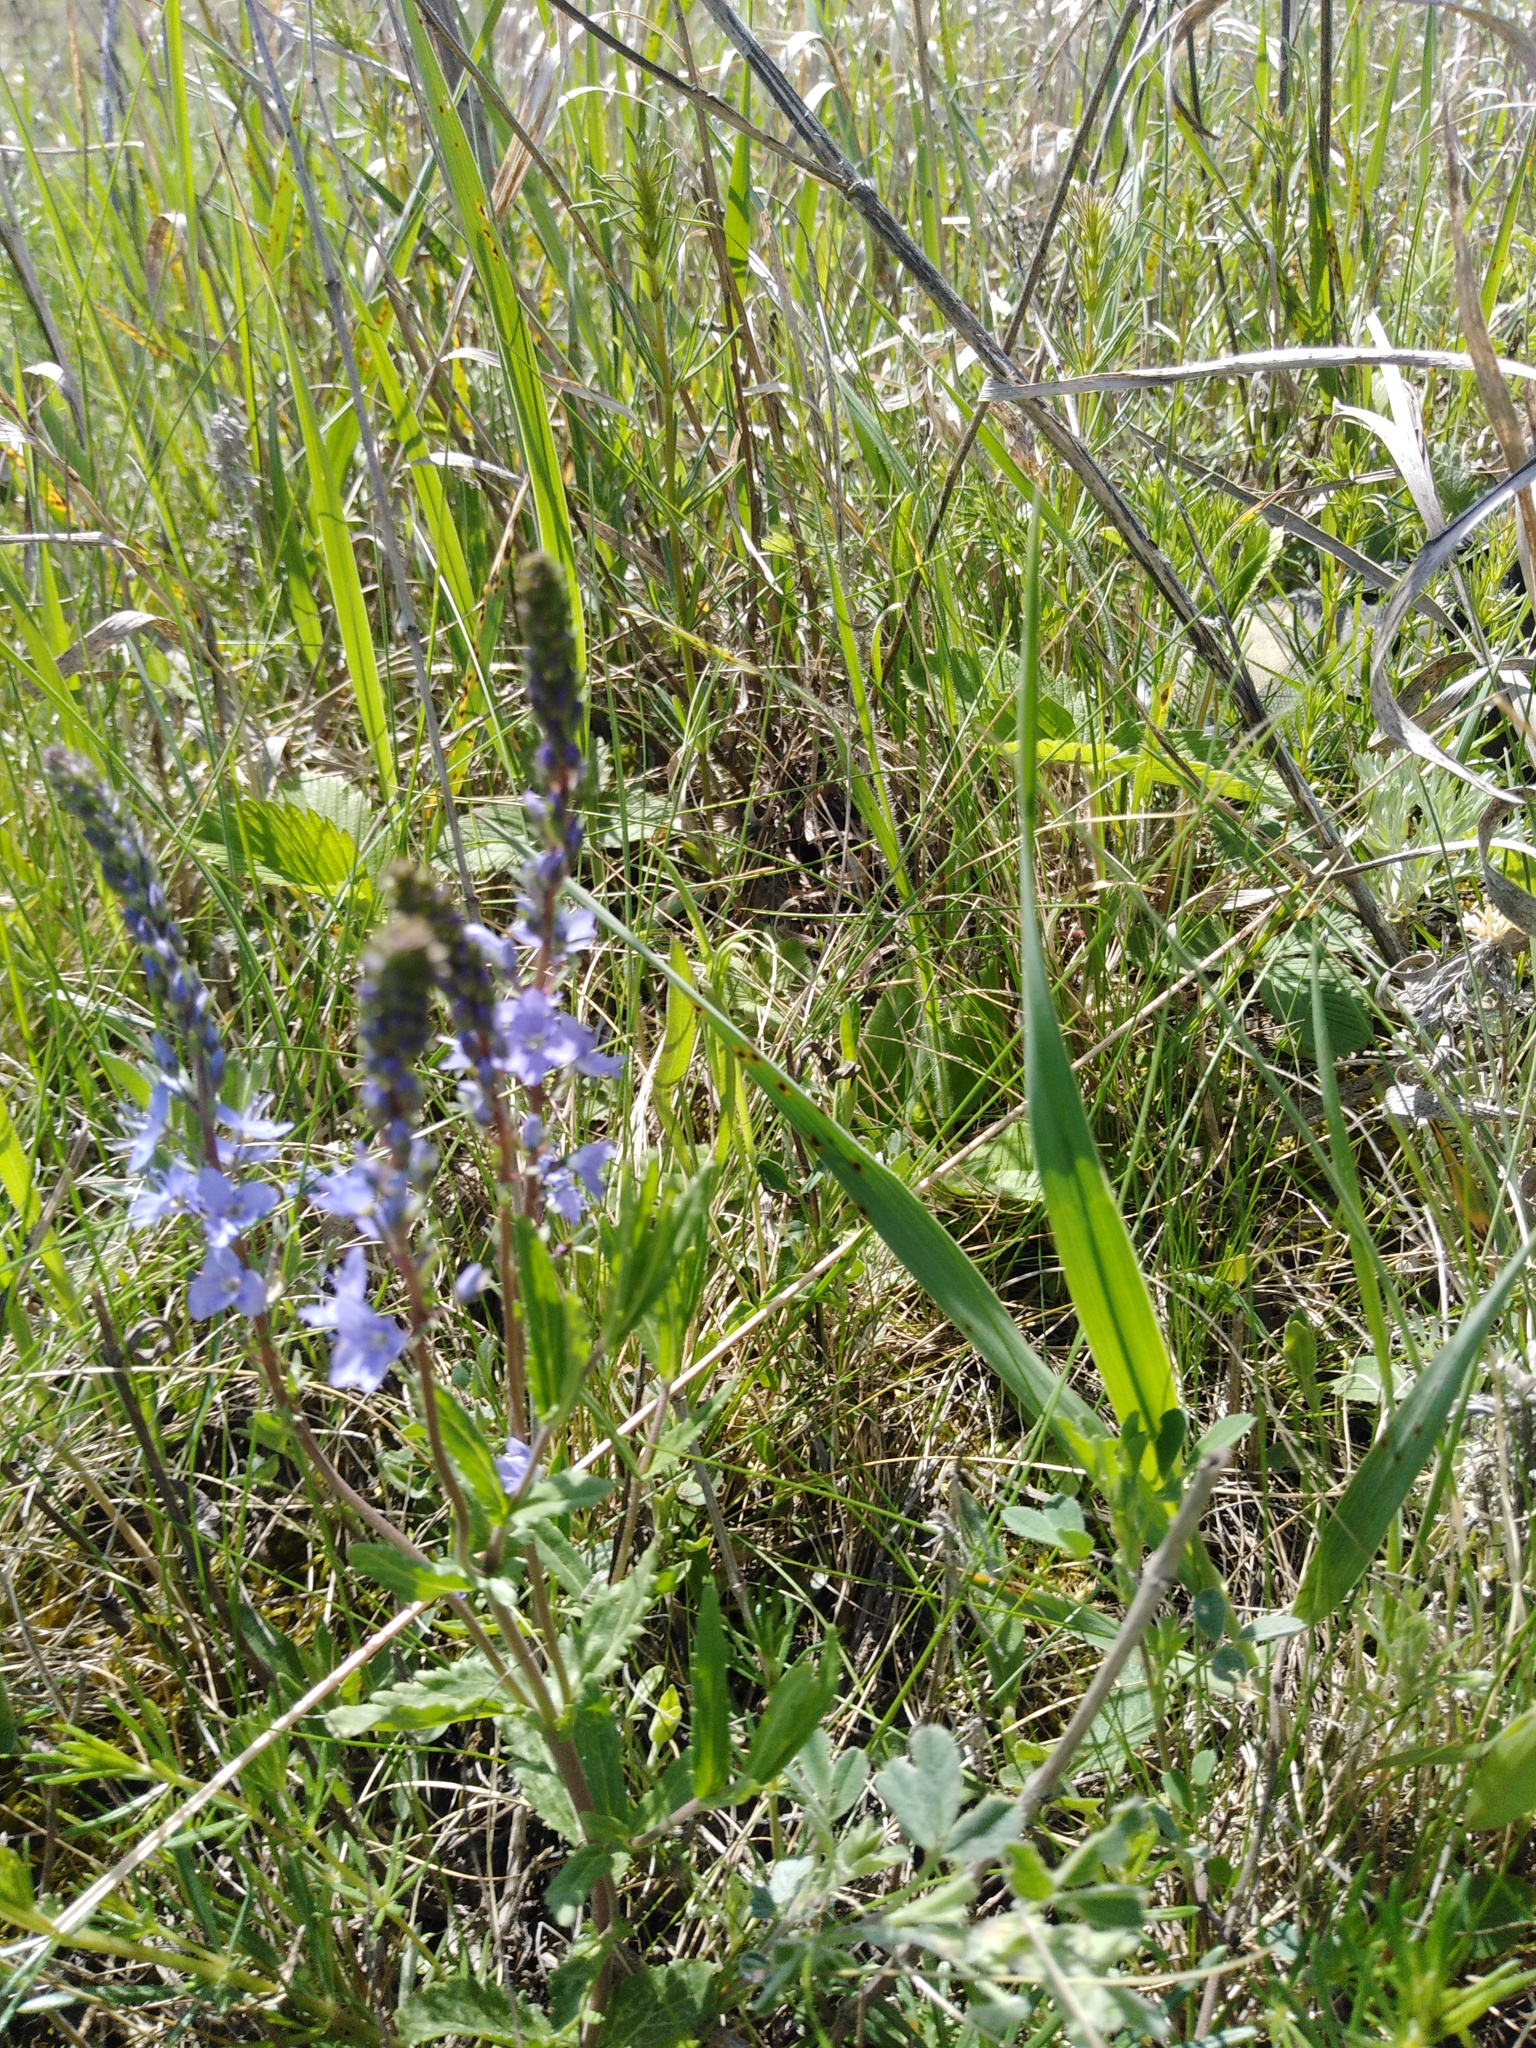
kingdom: Plantae
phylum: Tracheophyta
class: Magnoliopsida
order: Lamiales
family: Plantaginaceae
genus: Veronica
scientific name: Veronica prostrata
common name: Prostrate speedwell
